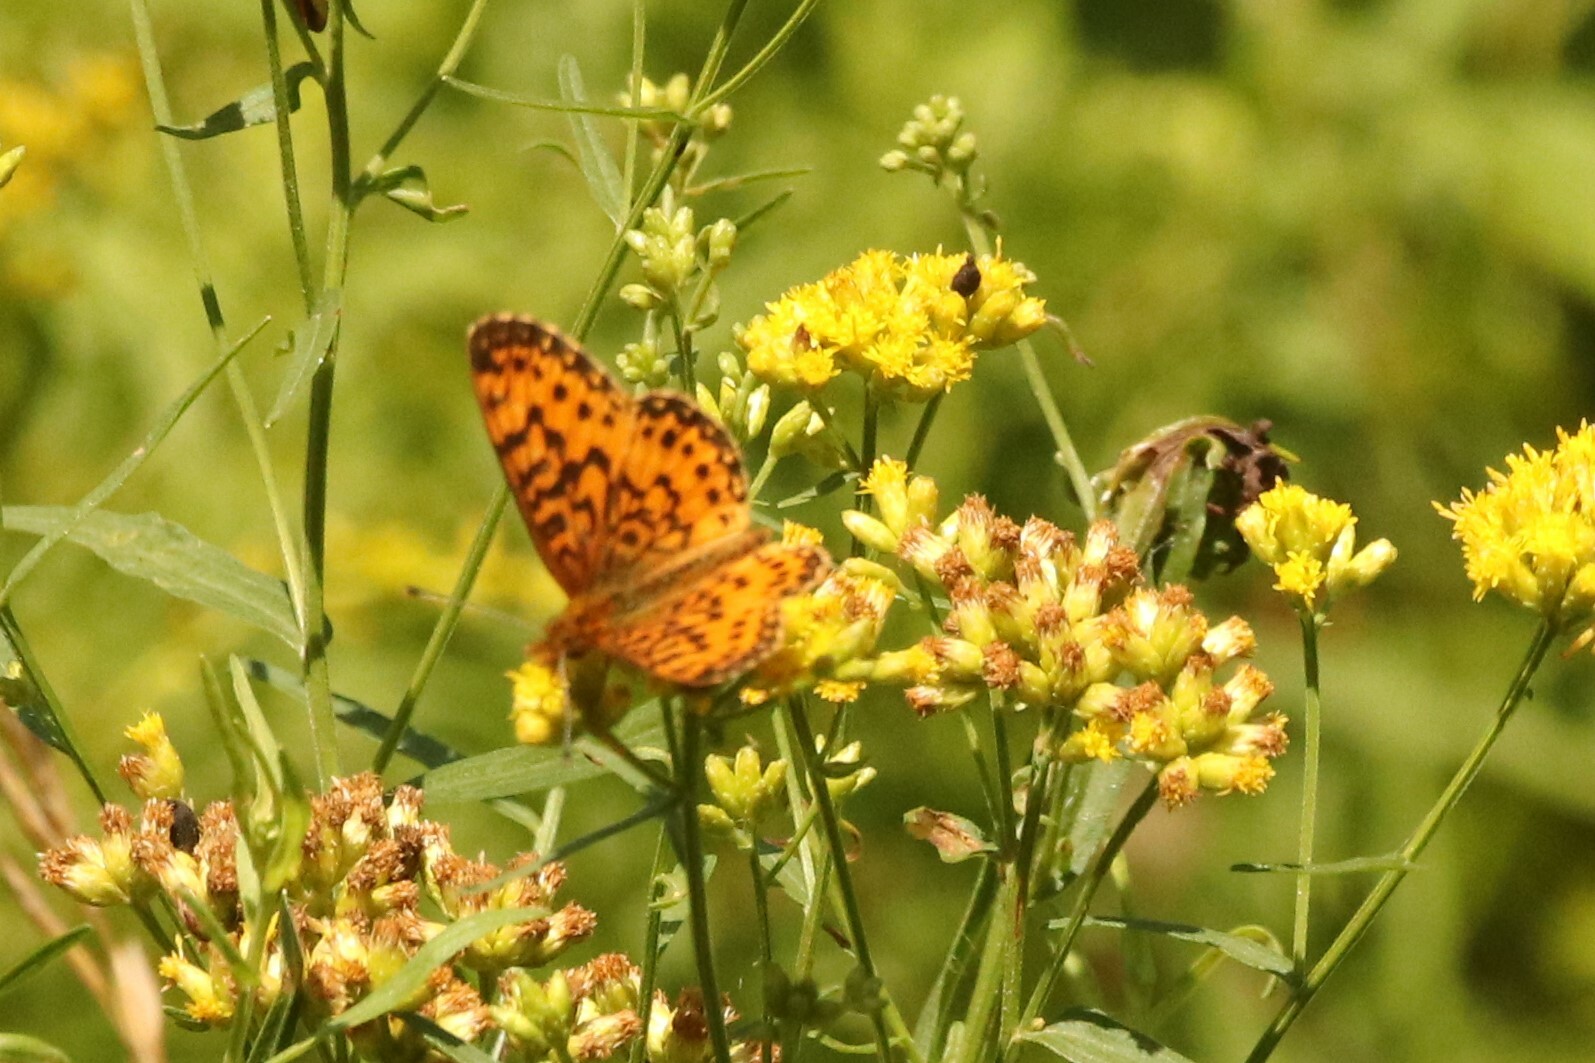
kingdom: Animalia
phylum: Arthropoda
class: Insecta
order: Lepidoptera
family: Nymphalidae
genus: Boloria
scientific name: Boloria
